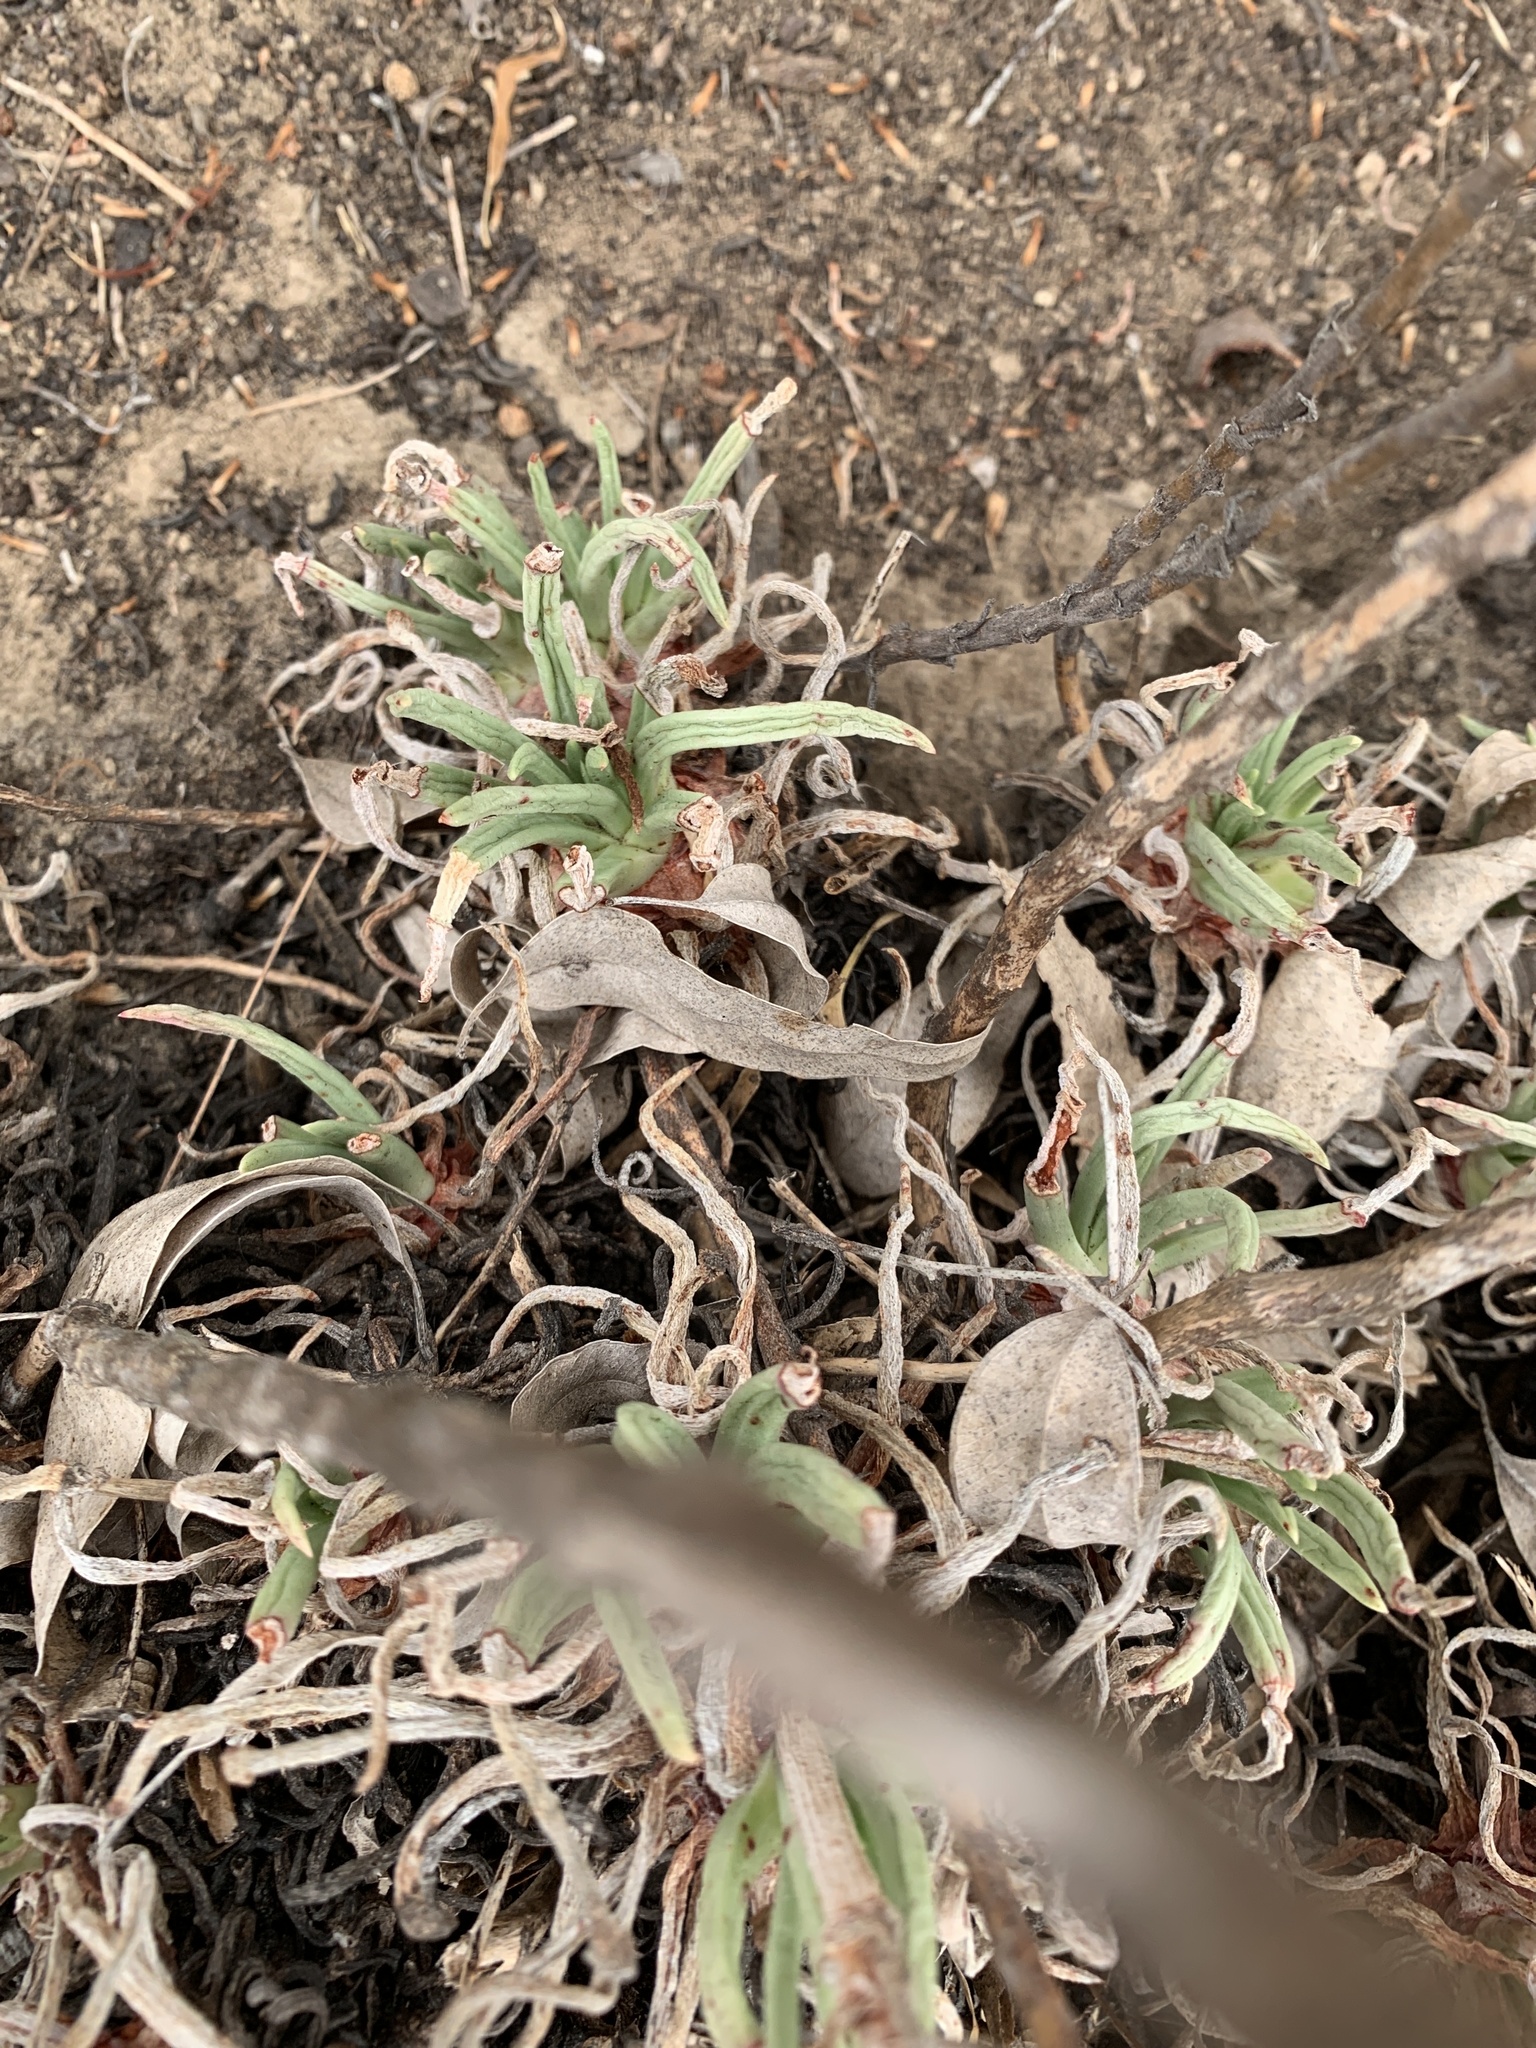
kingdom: Plantae
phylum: Tracheophyta
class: Magnoliopsida
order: Saxifragales
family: Crassulaceae
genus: Dudleya
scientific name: Dudleya edulis
